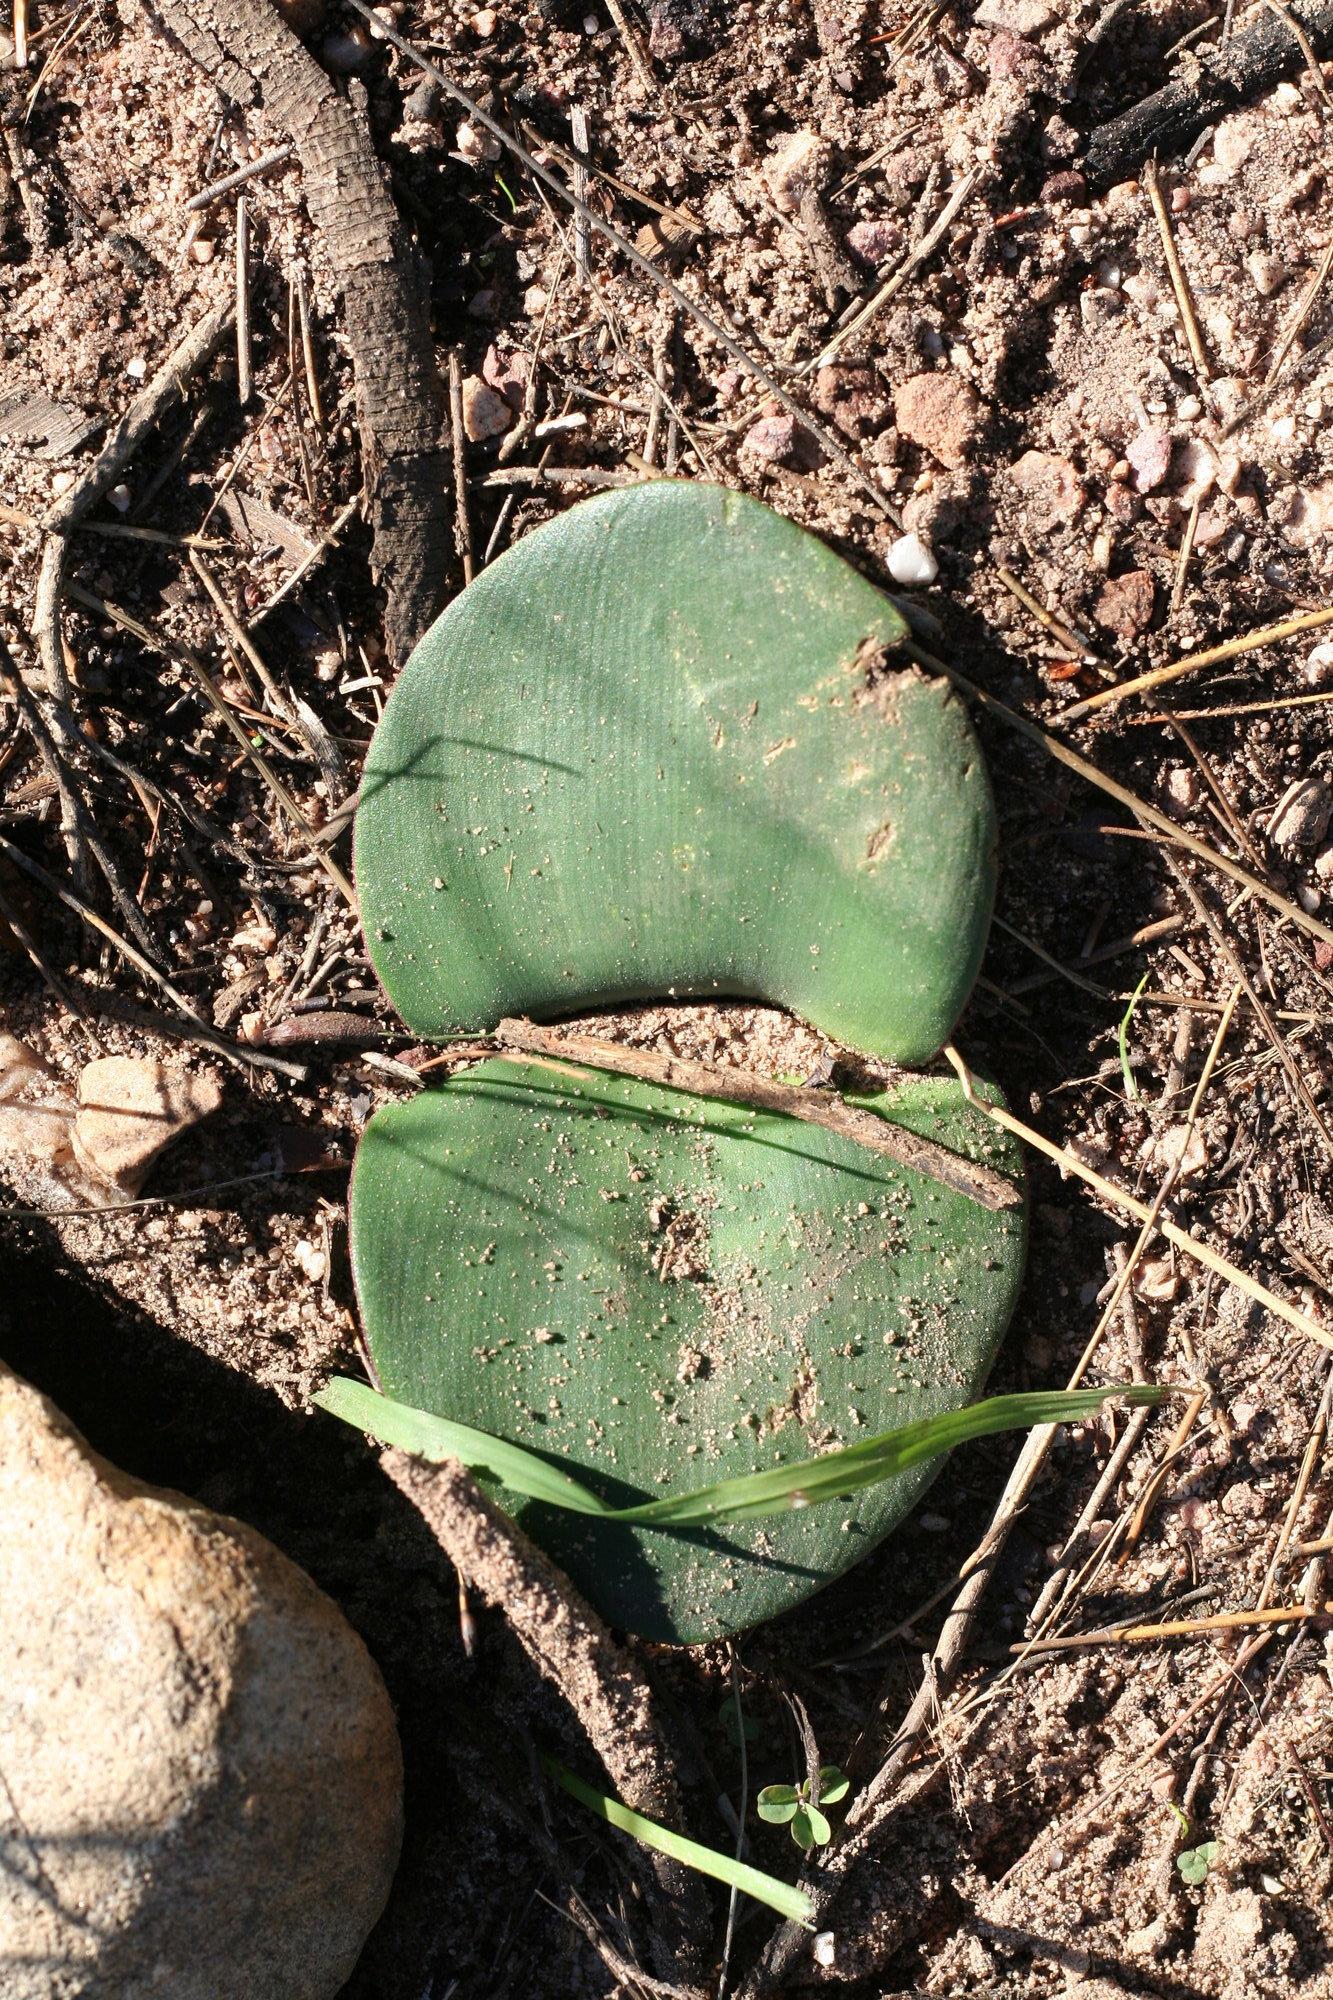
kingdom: Plantae
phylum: Tracheophyta
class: Liliopsida
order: Asparagales
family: Amaryllidaceae
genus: Haemanthus
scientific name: Haemanthus sanguineus
